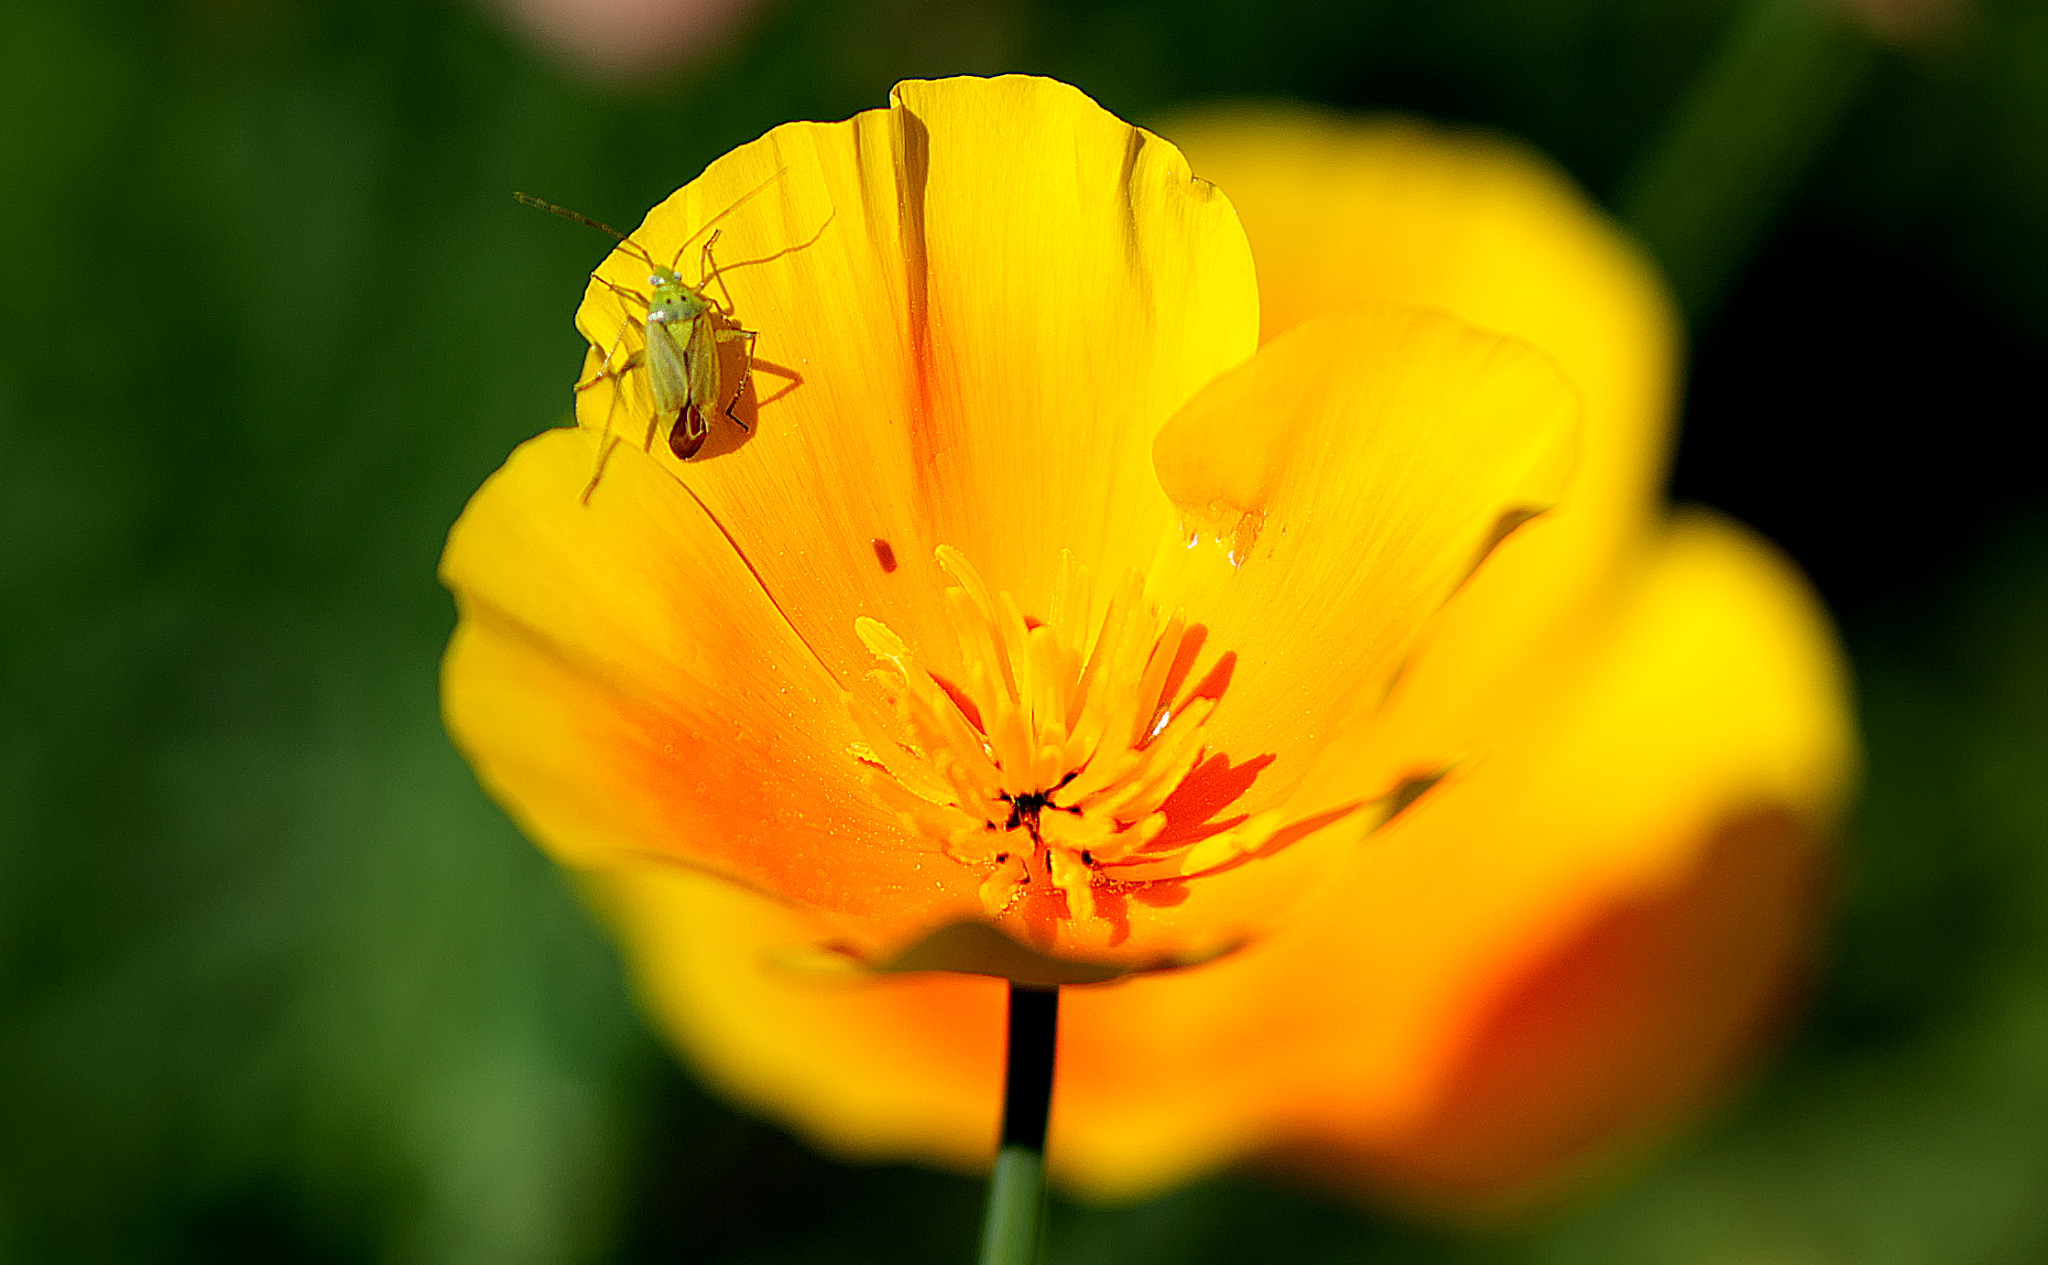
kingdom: Animalia
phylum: Arthropoda
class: Insecta
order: Hemiptera
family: Miridae
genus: Closterotomus
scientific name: Closterotomus norvegicus
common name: Plant bug
